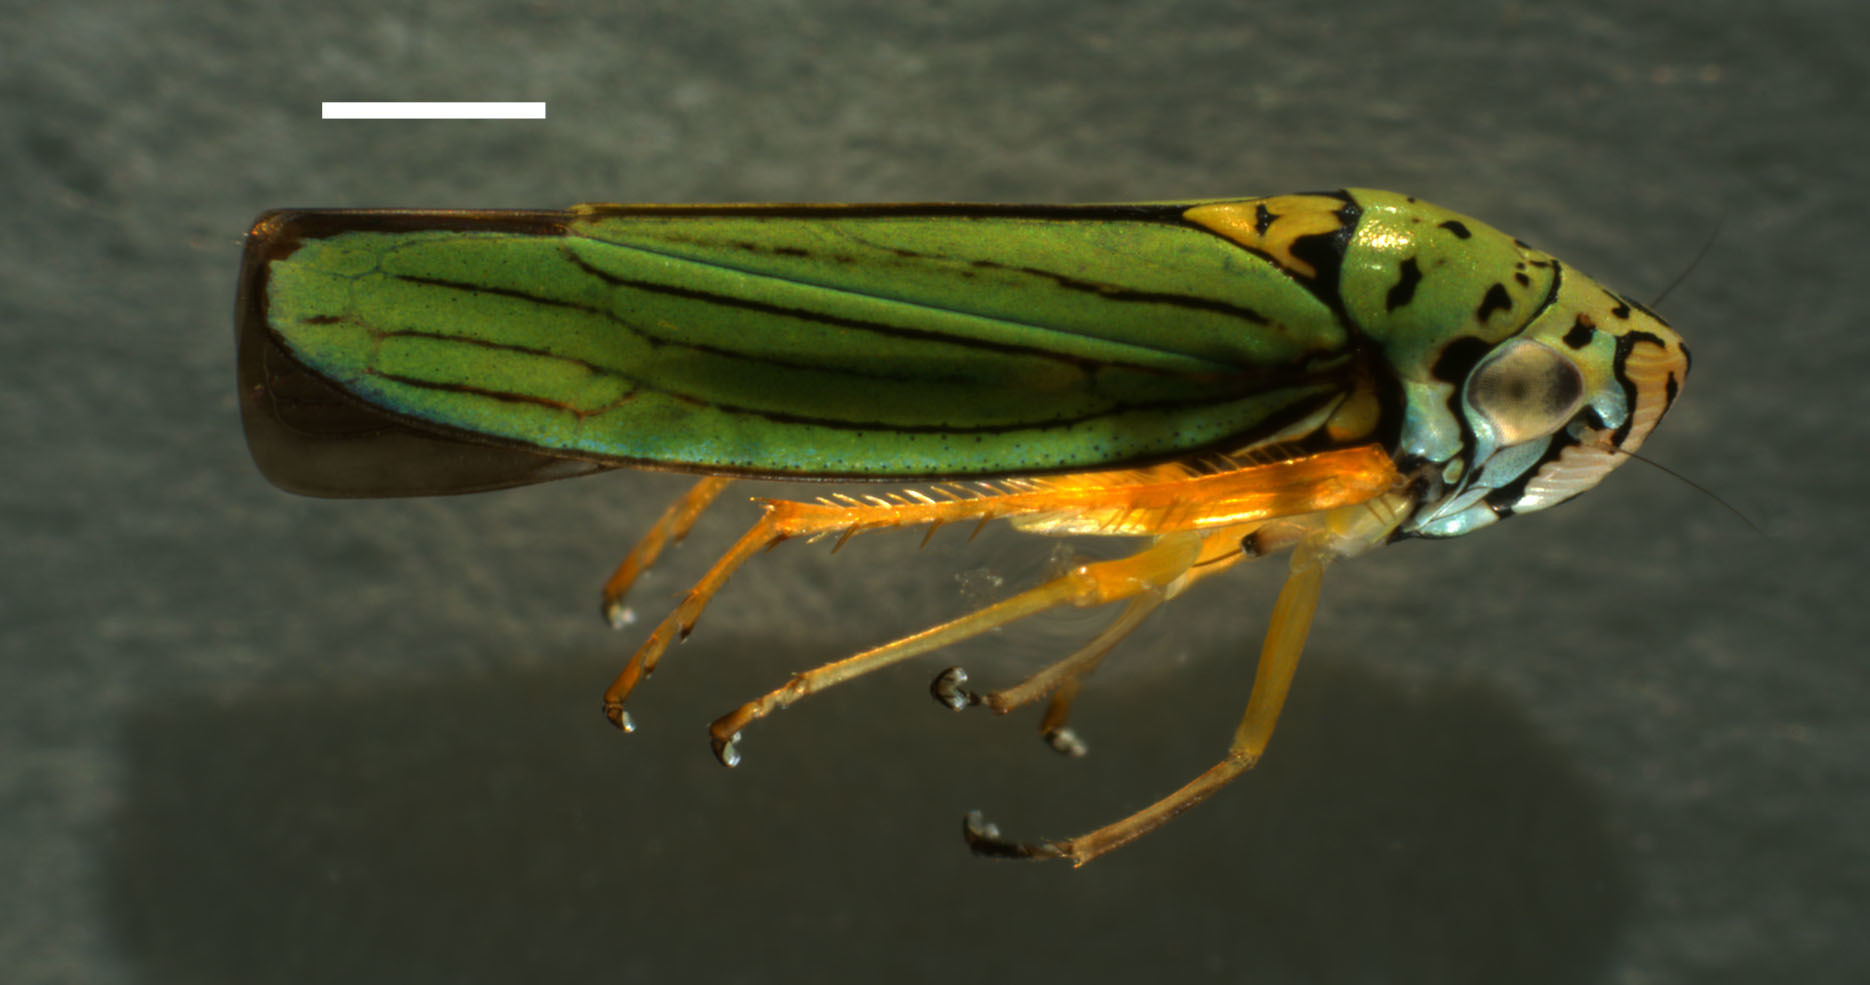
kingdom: Animalia
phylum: Arthropoda
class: Insecta
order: Hemiptera
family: Cicadellidae
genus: Graphocephala
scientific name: Graphocephala atropunctata
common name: Blue-green sharpshooter
